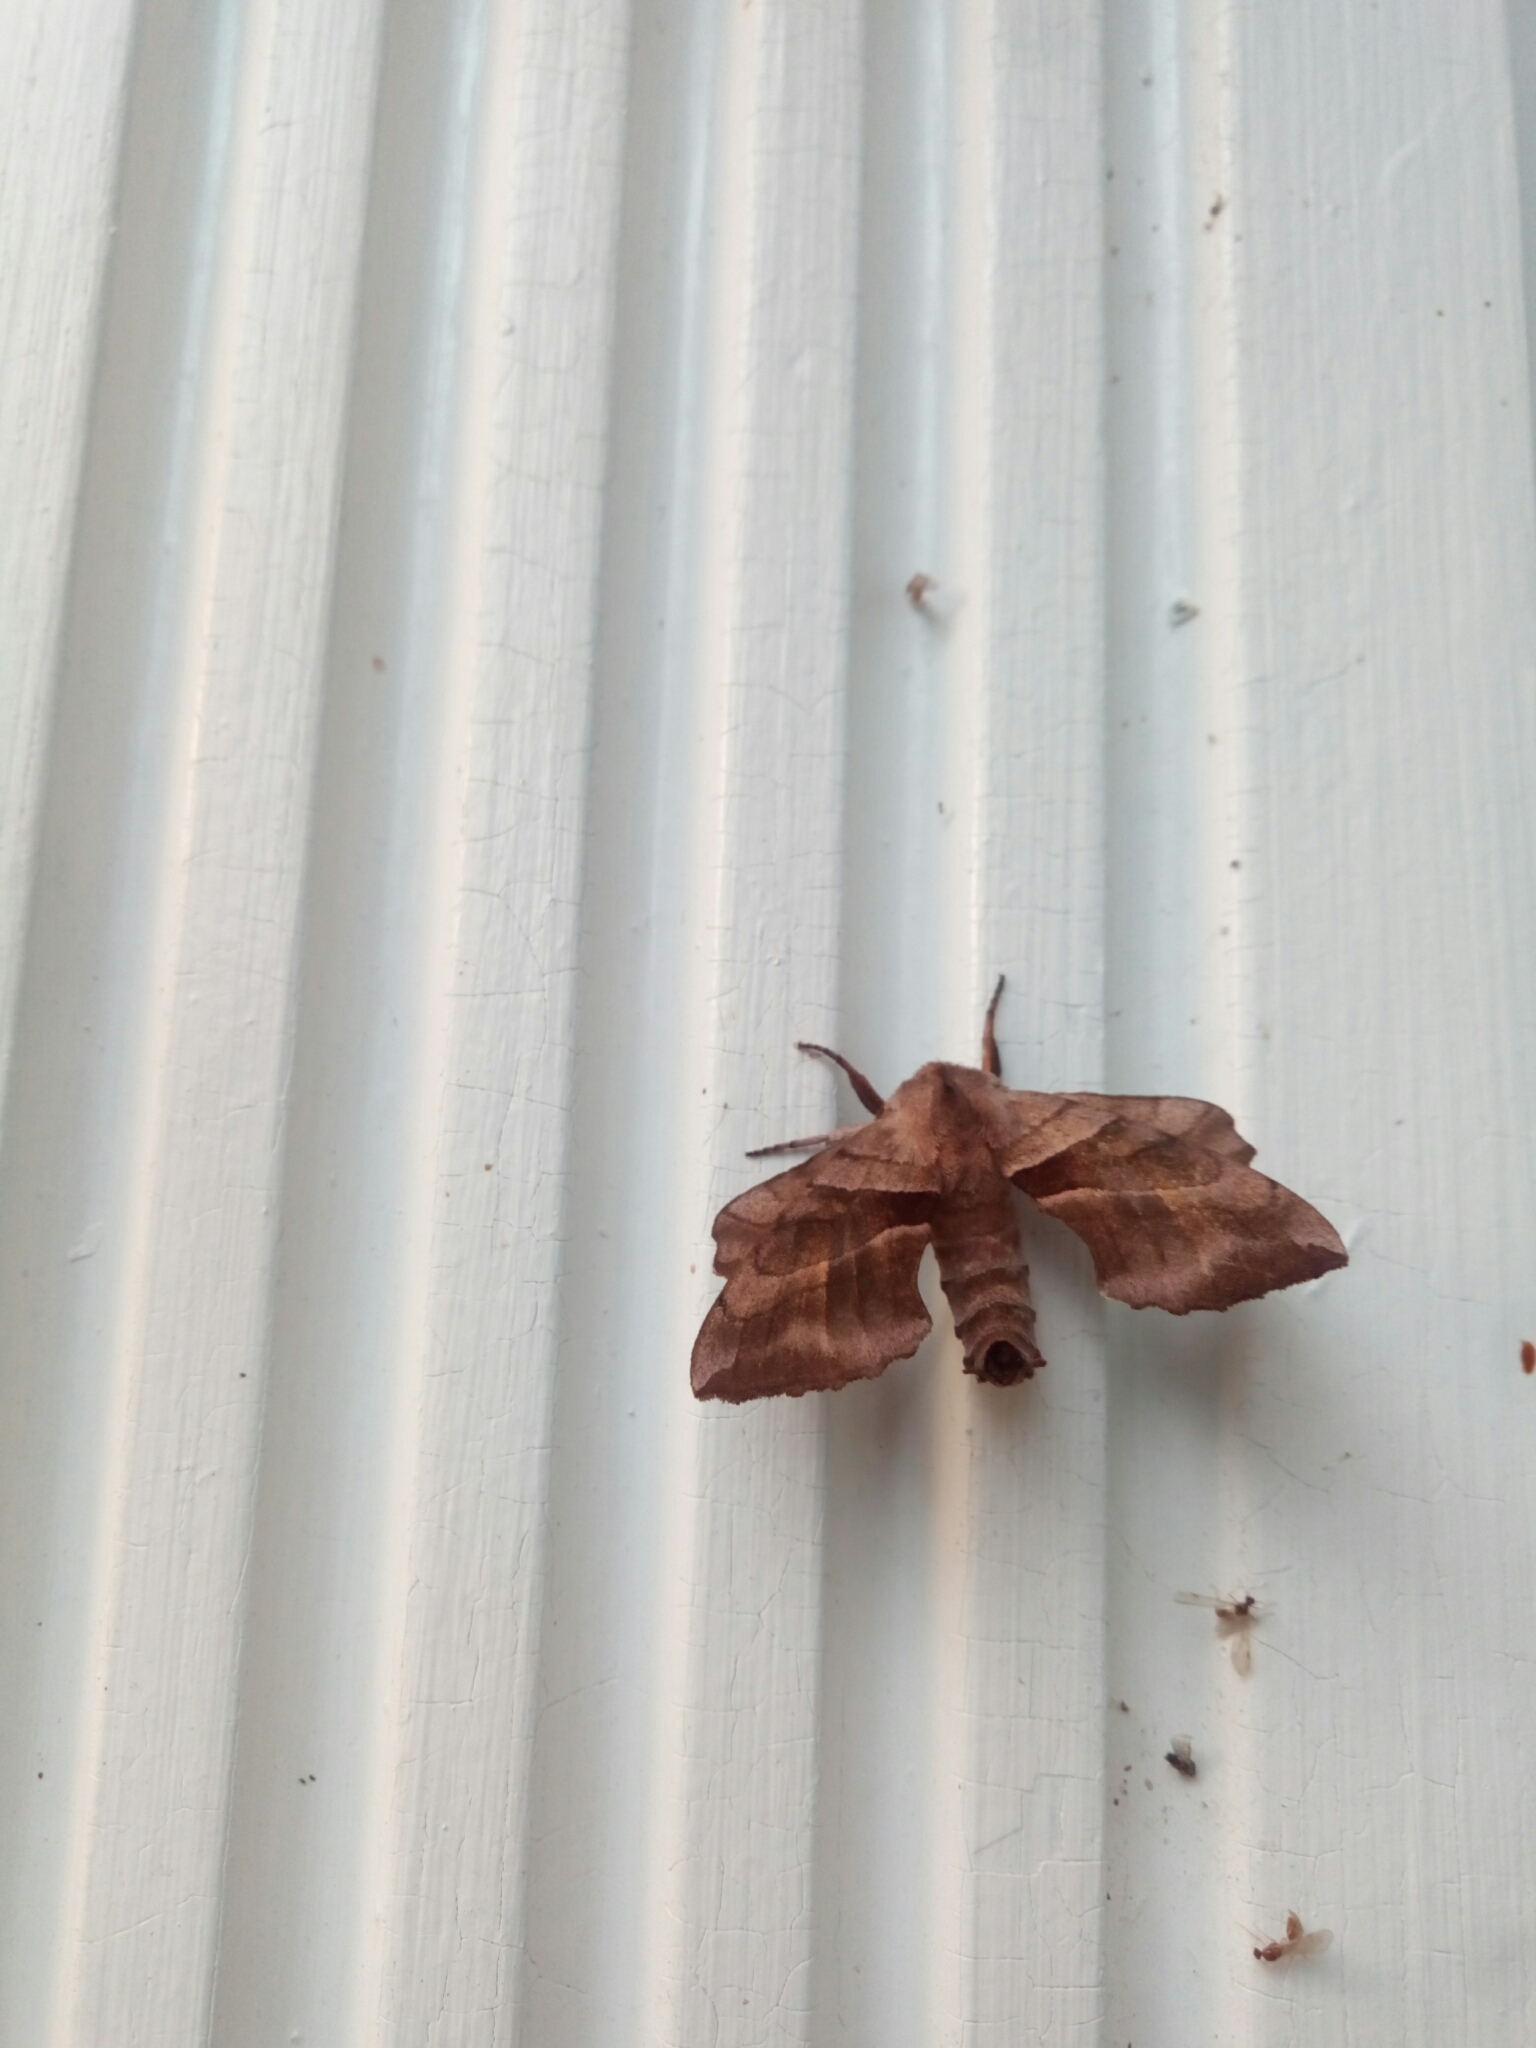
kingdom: Animalia
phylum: Arthropoda
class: Insecta
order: Lepidoptera
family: Sphingidae
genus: Amorpha
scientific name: Amorpha juglandis
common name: Walnut sphinx
